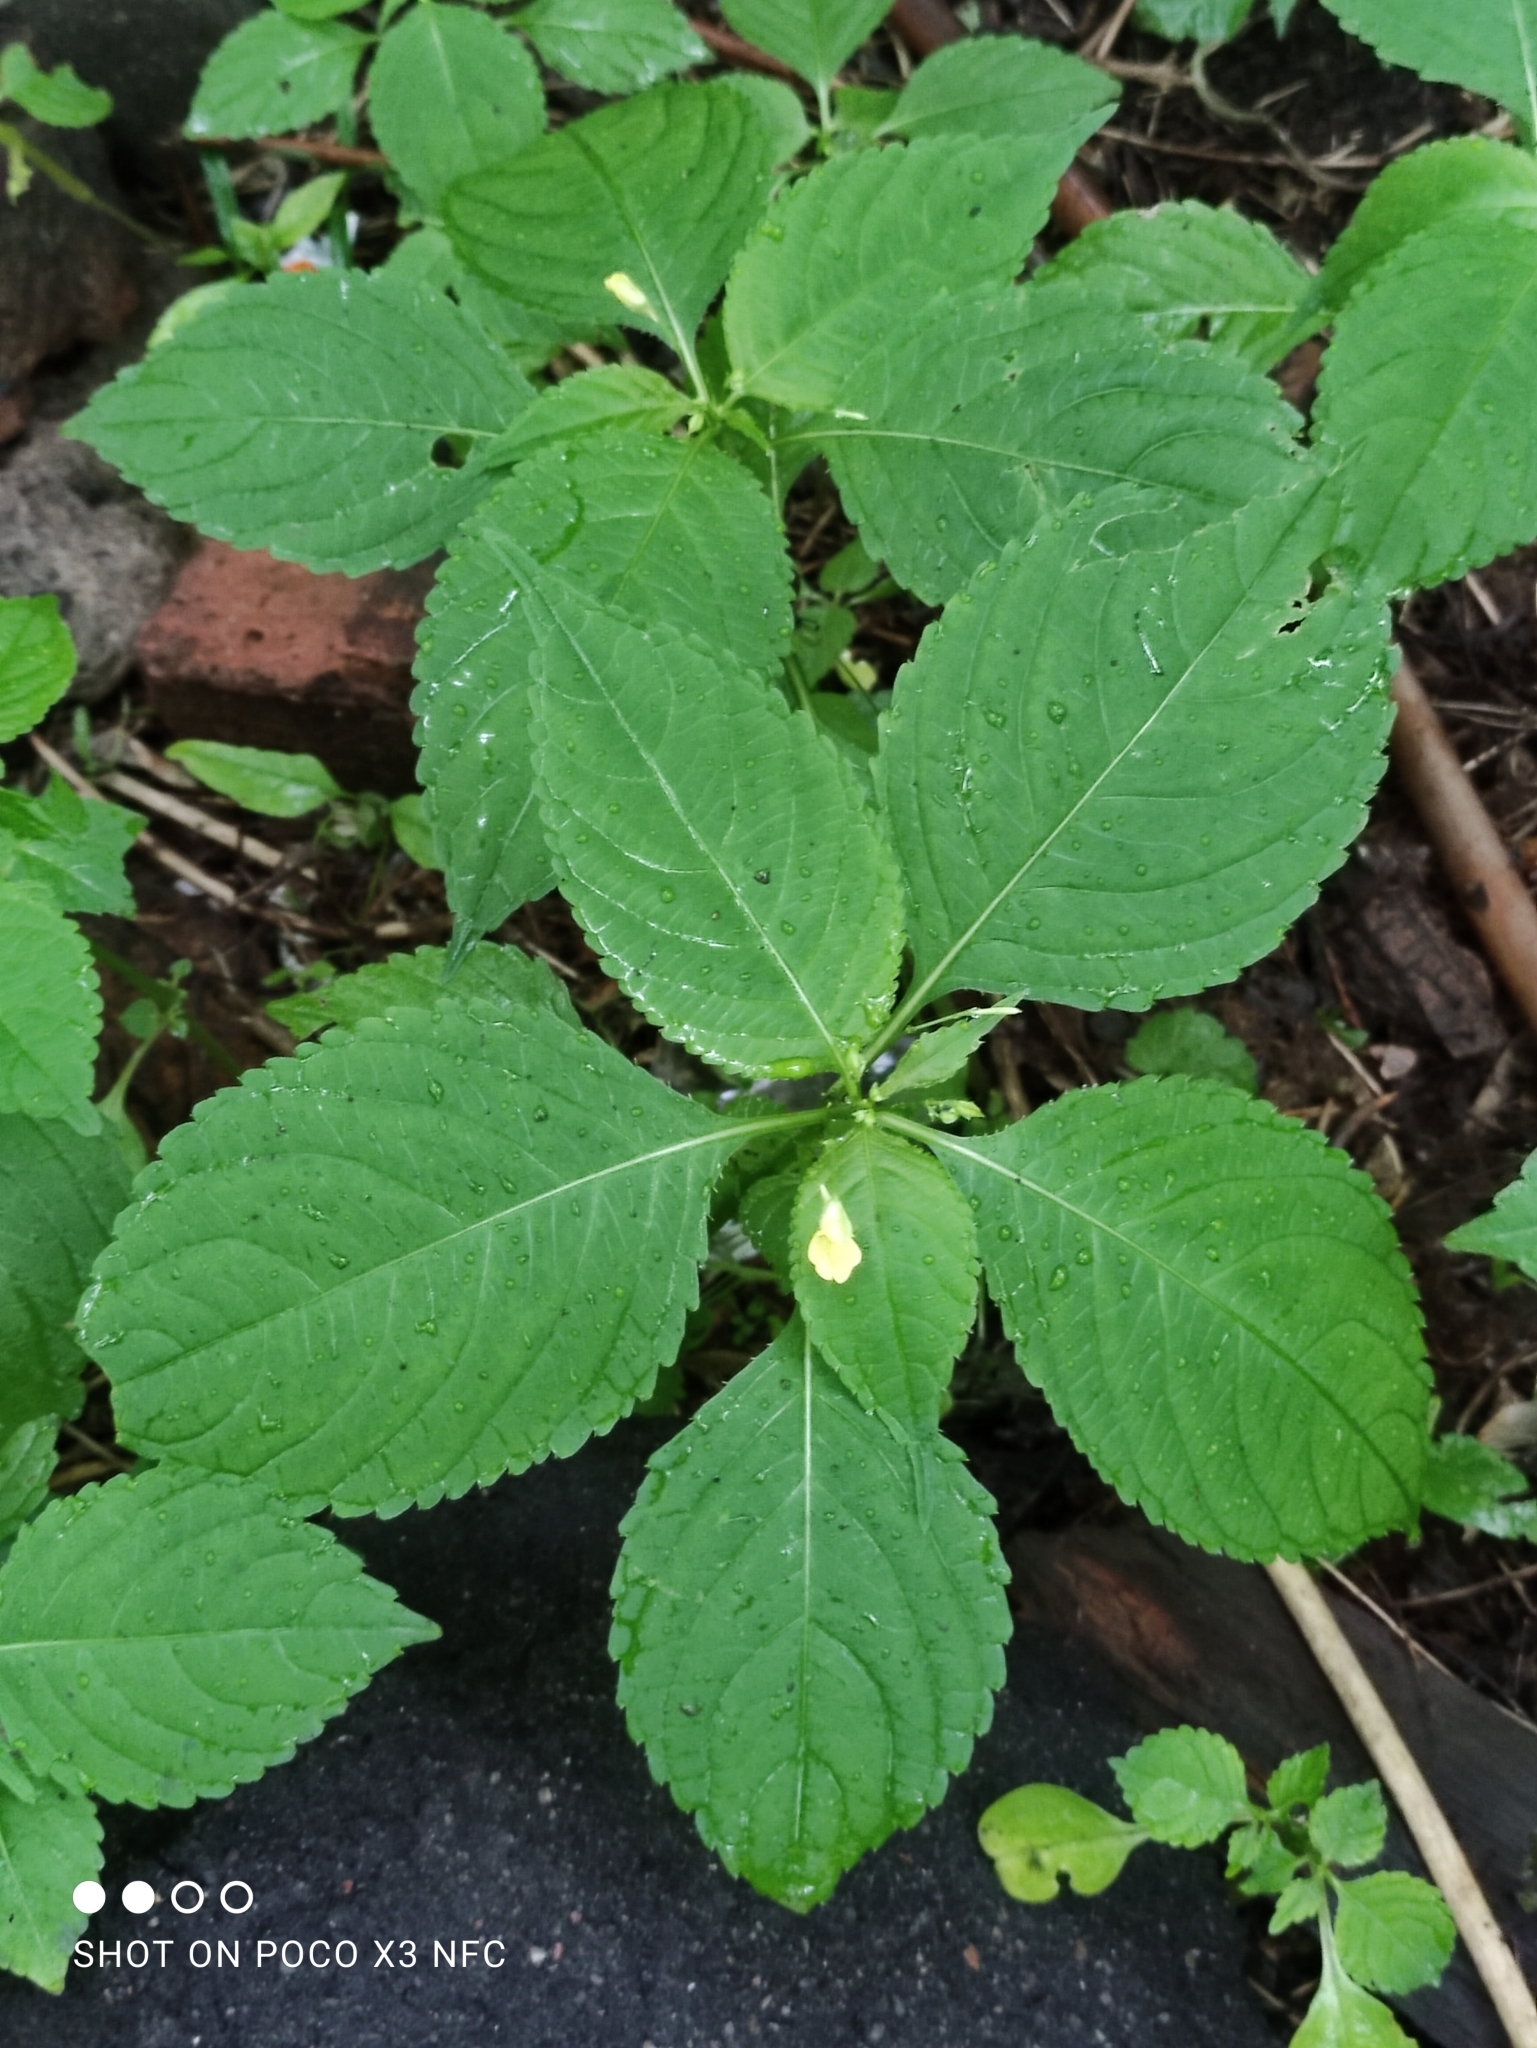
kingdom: Plantae
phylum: Tracheophyta
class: Magnoliopsida
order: Ericales
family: Balsaminaceae
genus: Impatiens
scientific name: Impatiens parviflora
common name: Small balsam
